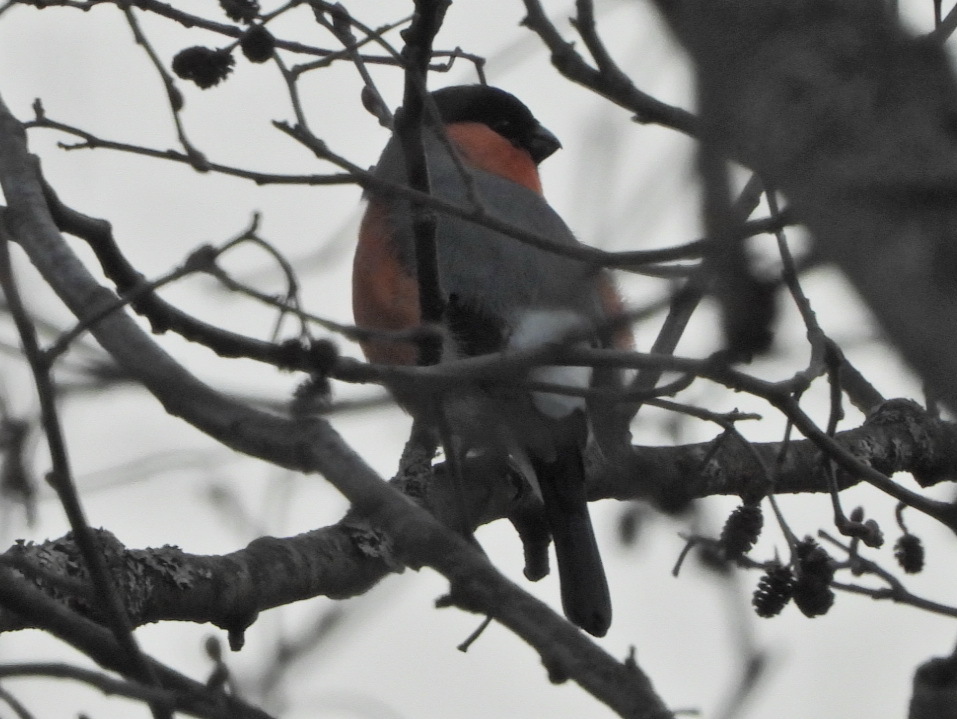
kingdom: Animalia
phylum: Chordata
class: Aves
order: Passeriformes
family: Fringillidae
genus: Pyrrhula
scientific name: Pyrrhula pyrrhula
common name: Eurasian bullfinch
